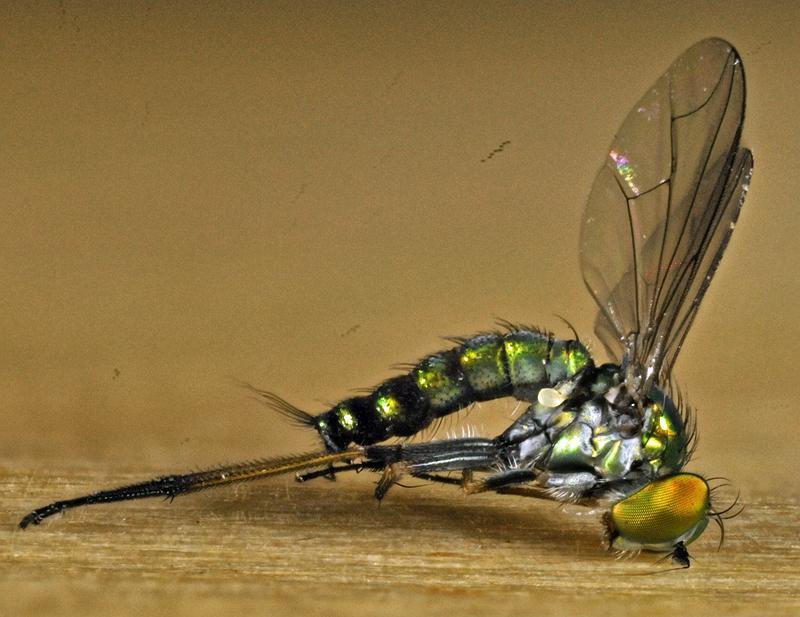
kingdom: Animalia
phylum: Arthropoda
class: Insecta
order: Diptera
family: Dolichopodidae
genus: Condylostylus
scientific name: Condylostylus caudatus
